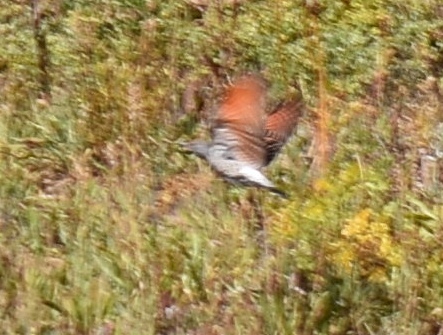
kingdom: Animalia
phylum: Chordata
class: Aves
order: Piciformes
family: Picidae
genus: Colaptes
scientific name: Colaptes auratus
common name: Northern flicker
